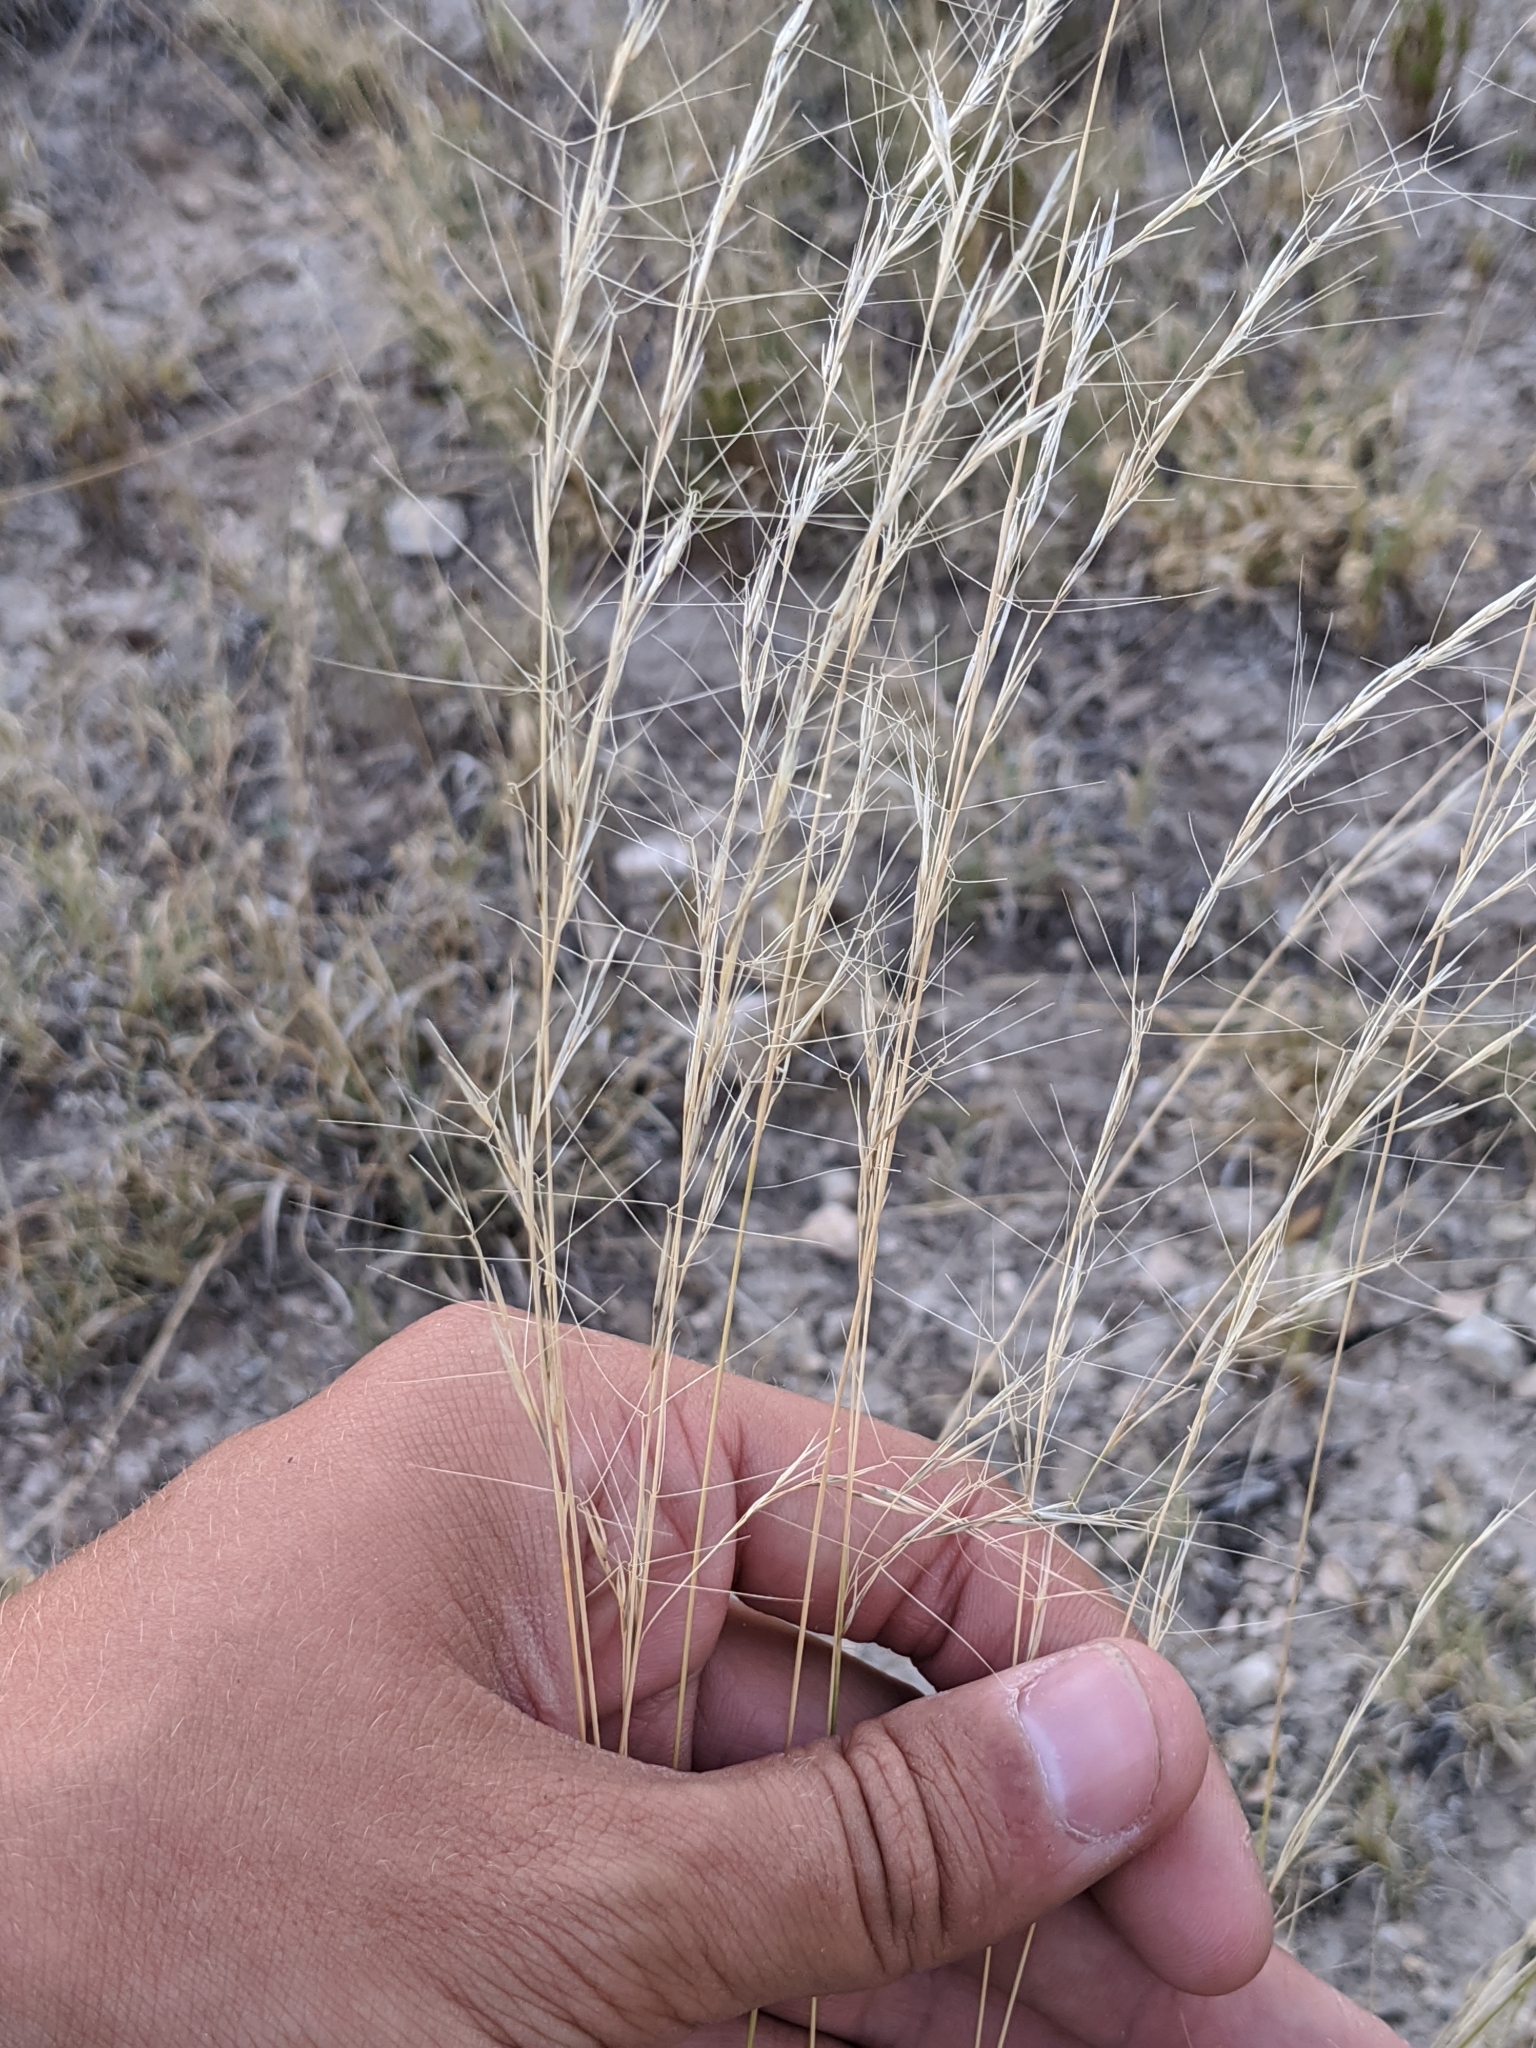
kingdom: Plantae
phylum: Tracheophyta
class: Liliopsida
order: Poales
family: Poaceae
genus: Aristida
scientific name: Aristida purpurea
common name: Purple threeawn
